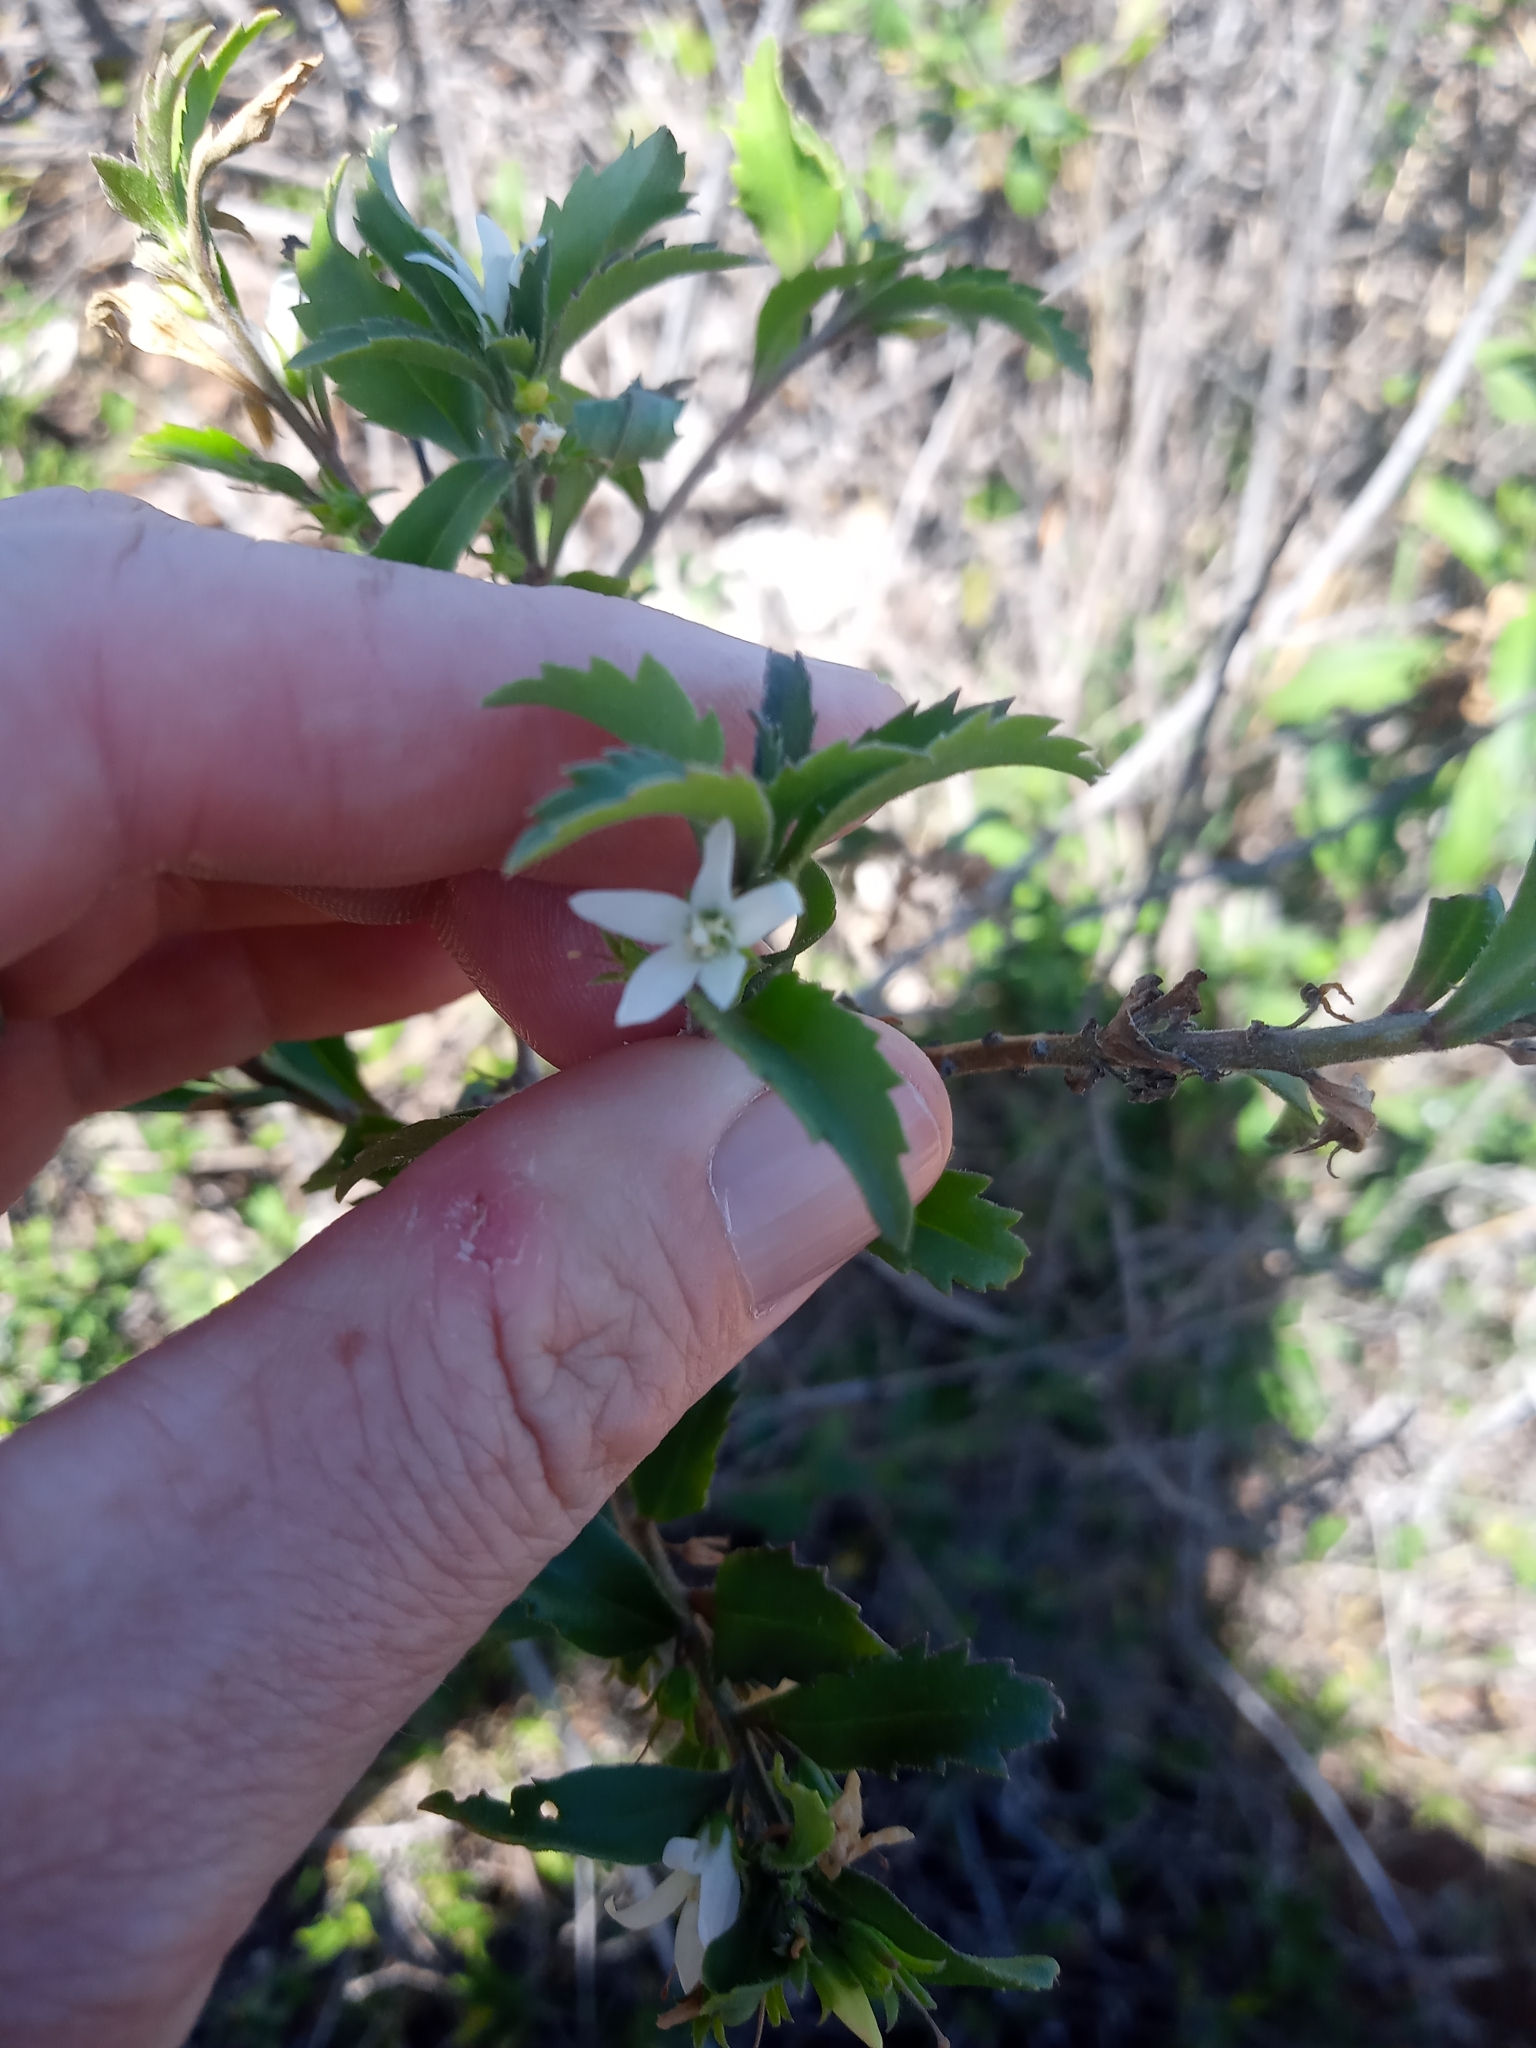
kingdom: Plantae
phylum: Tracheophyta
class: Magnoliopsida
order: Lamiales
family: Scrophulariaceae
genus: Capraria
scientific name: Capraria biflora
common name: Goatweed
